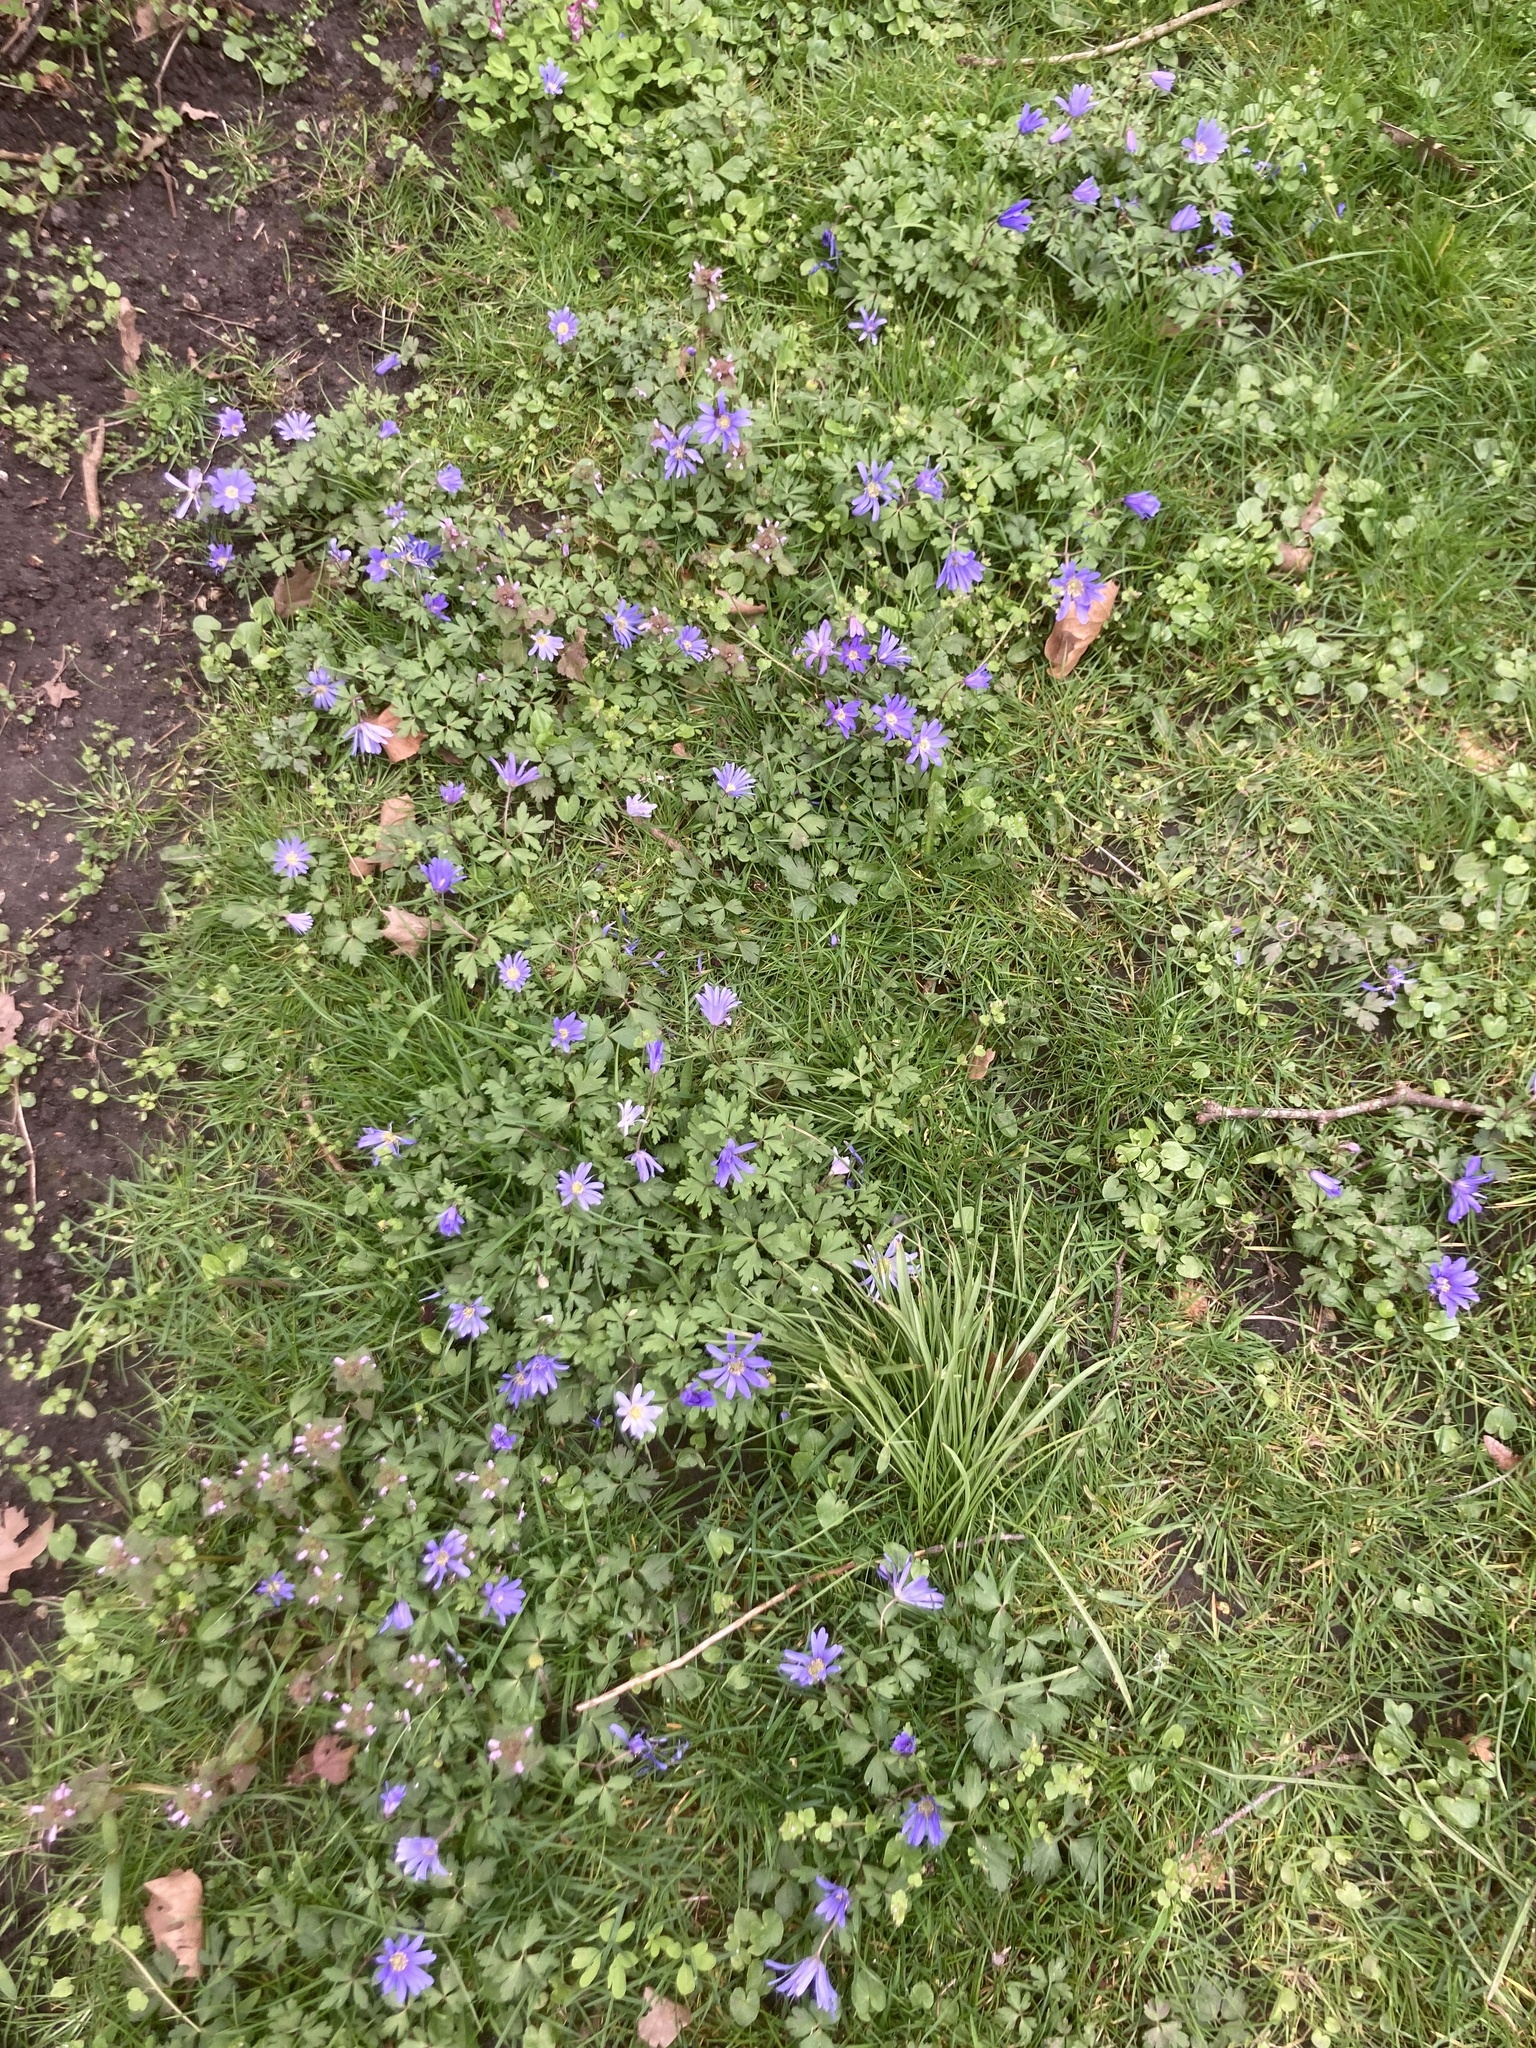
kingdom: Plantae
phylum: Tracheophyta
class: Magnoliopsida
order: Ranunculales
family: Ranunculaceae
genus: Anemone
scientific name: Anemone blanda
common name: Balkan anemone
